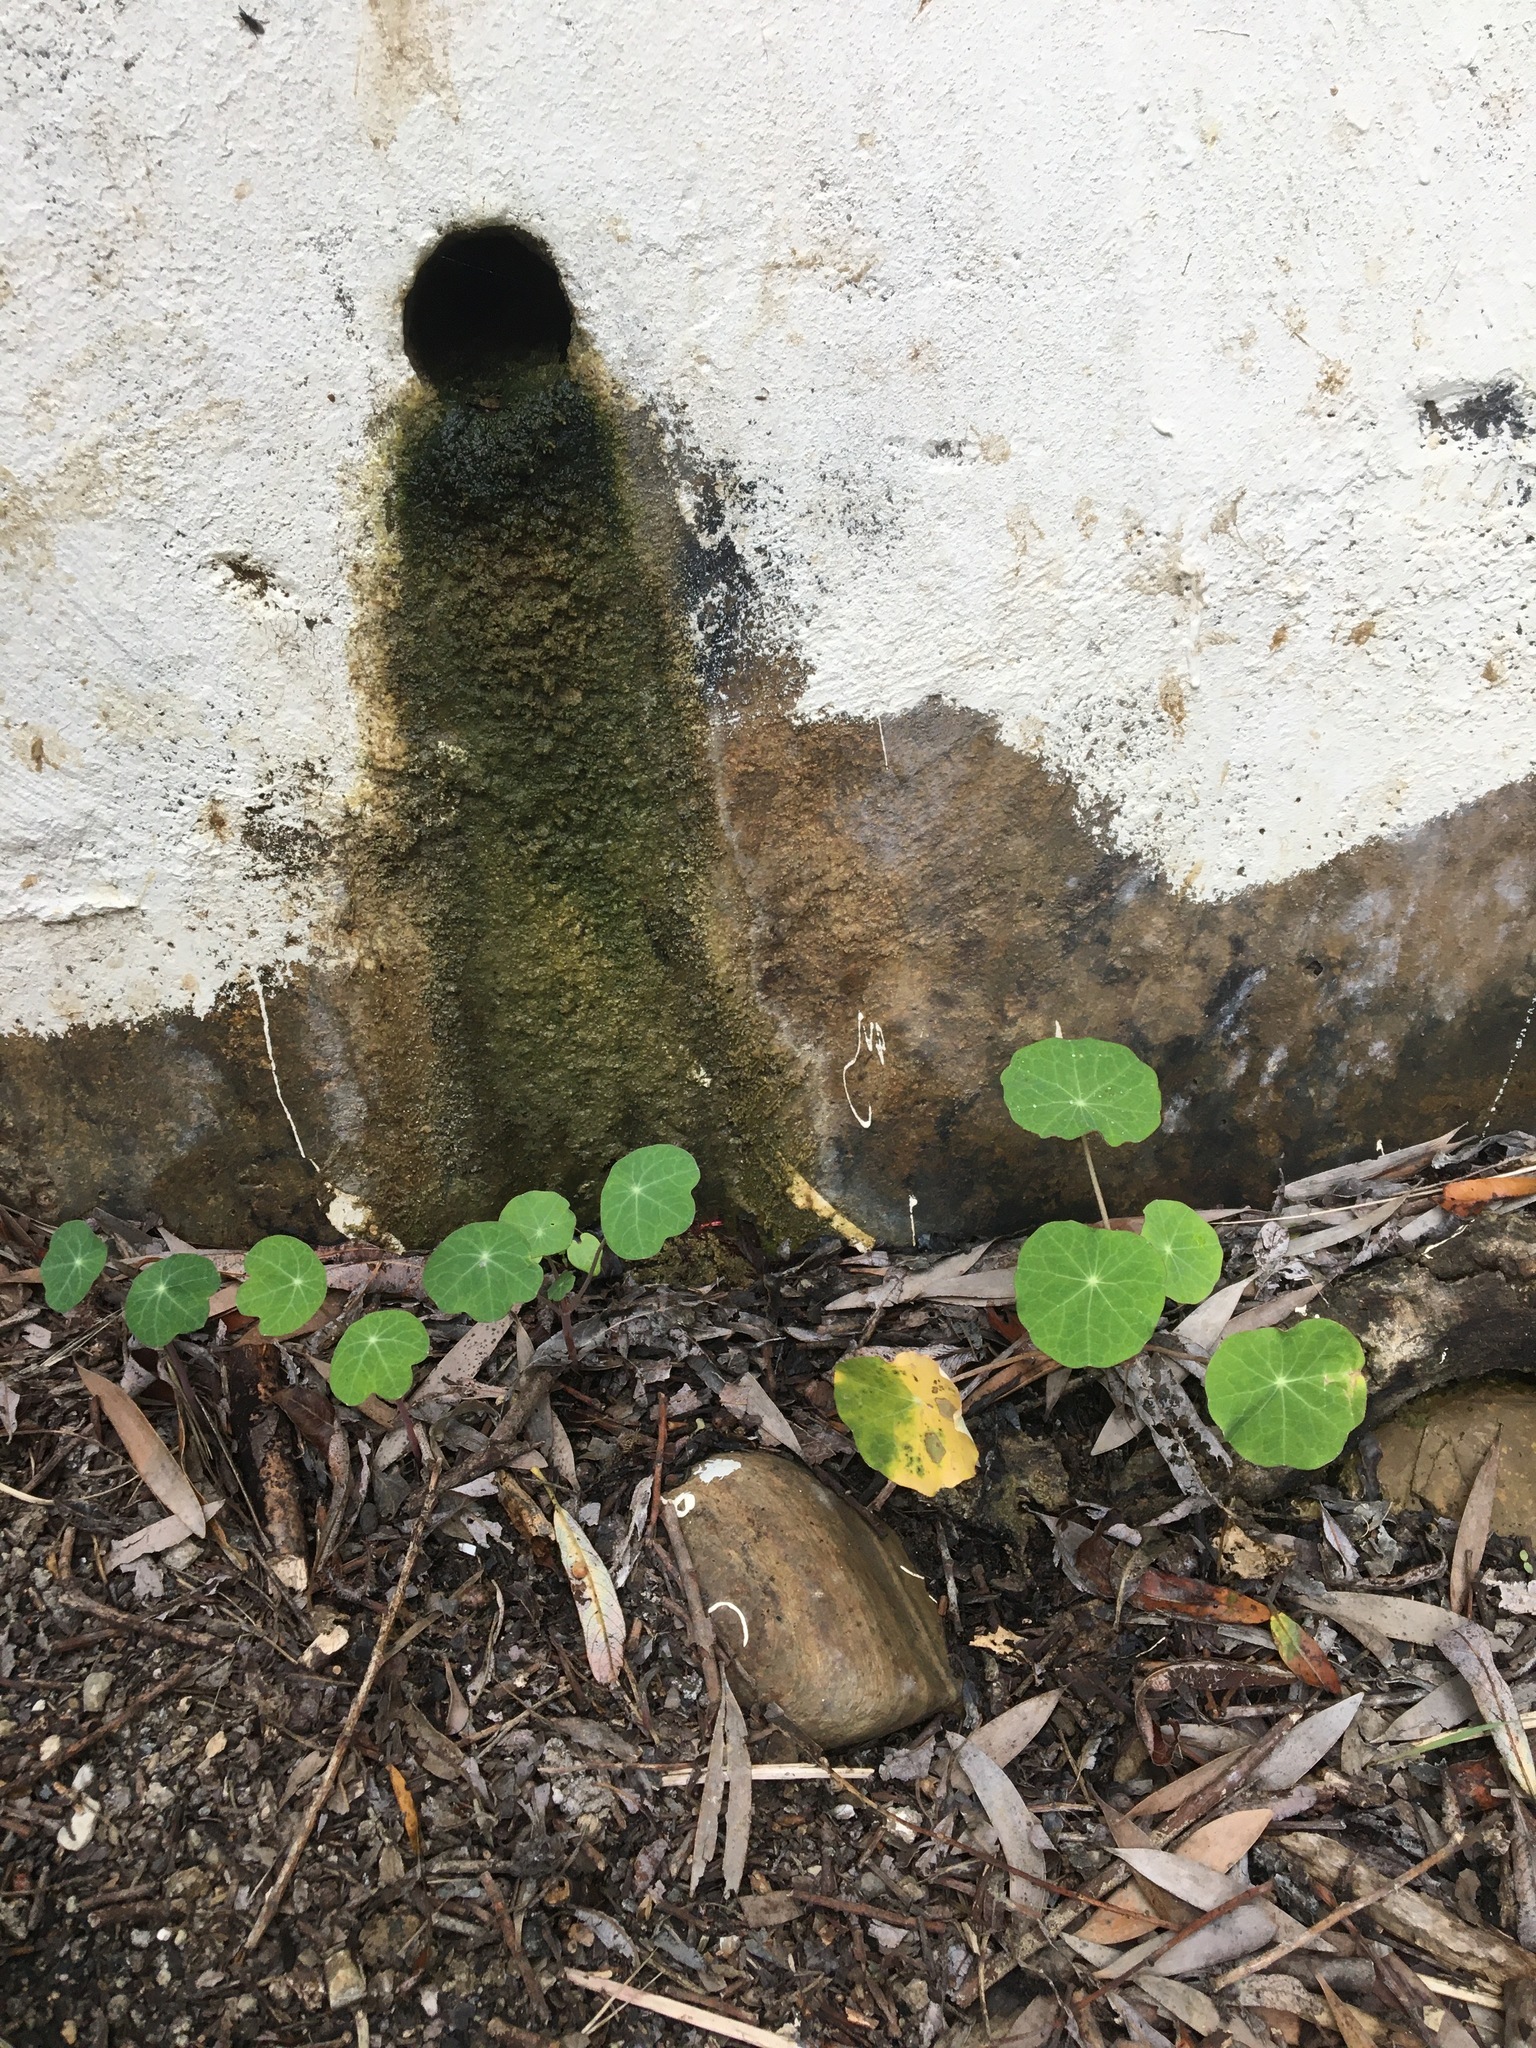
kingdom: Plantae
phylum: Tracheophyta
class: Magnoliopsida
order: Brassicales
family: Tropaeolaceae
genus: Tropaeolum
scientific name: Tropaeolum majus
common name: Nasturtium
